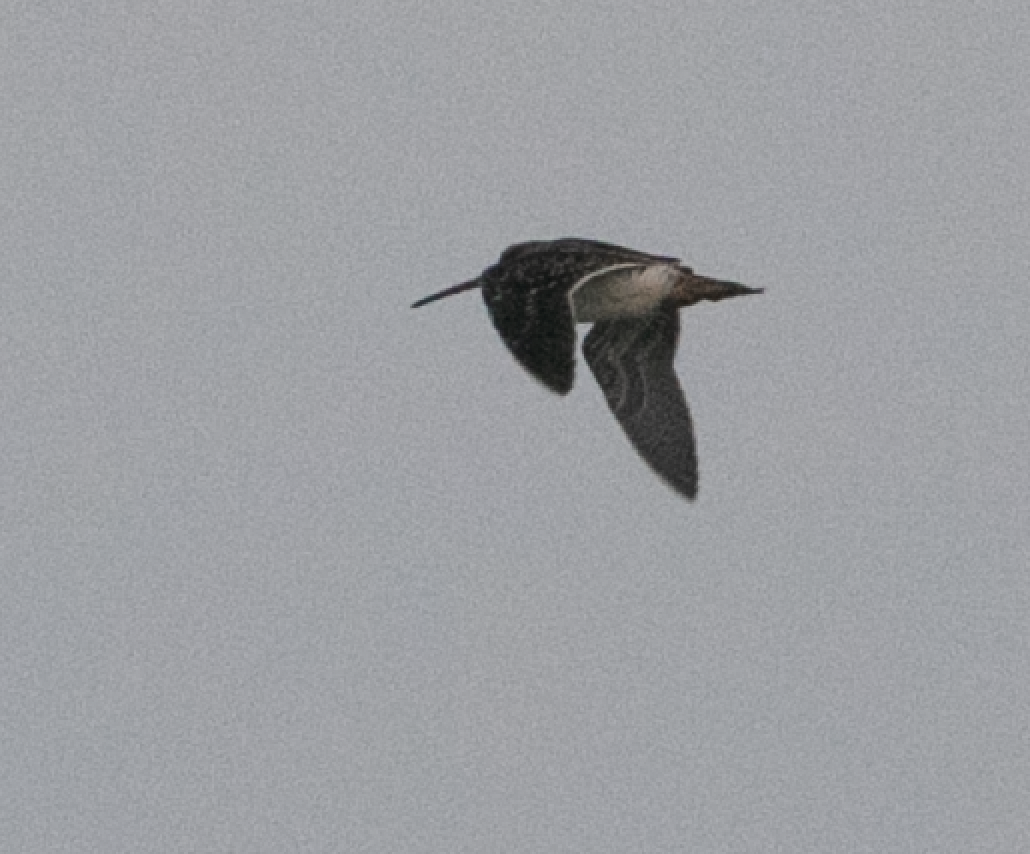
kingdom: Animalia
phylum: Chordata
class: Aves
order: Charadriiformes
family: Scolopacidae
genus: Gallinago
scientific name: Gallinago gallinago
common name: Common snipe
